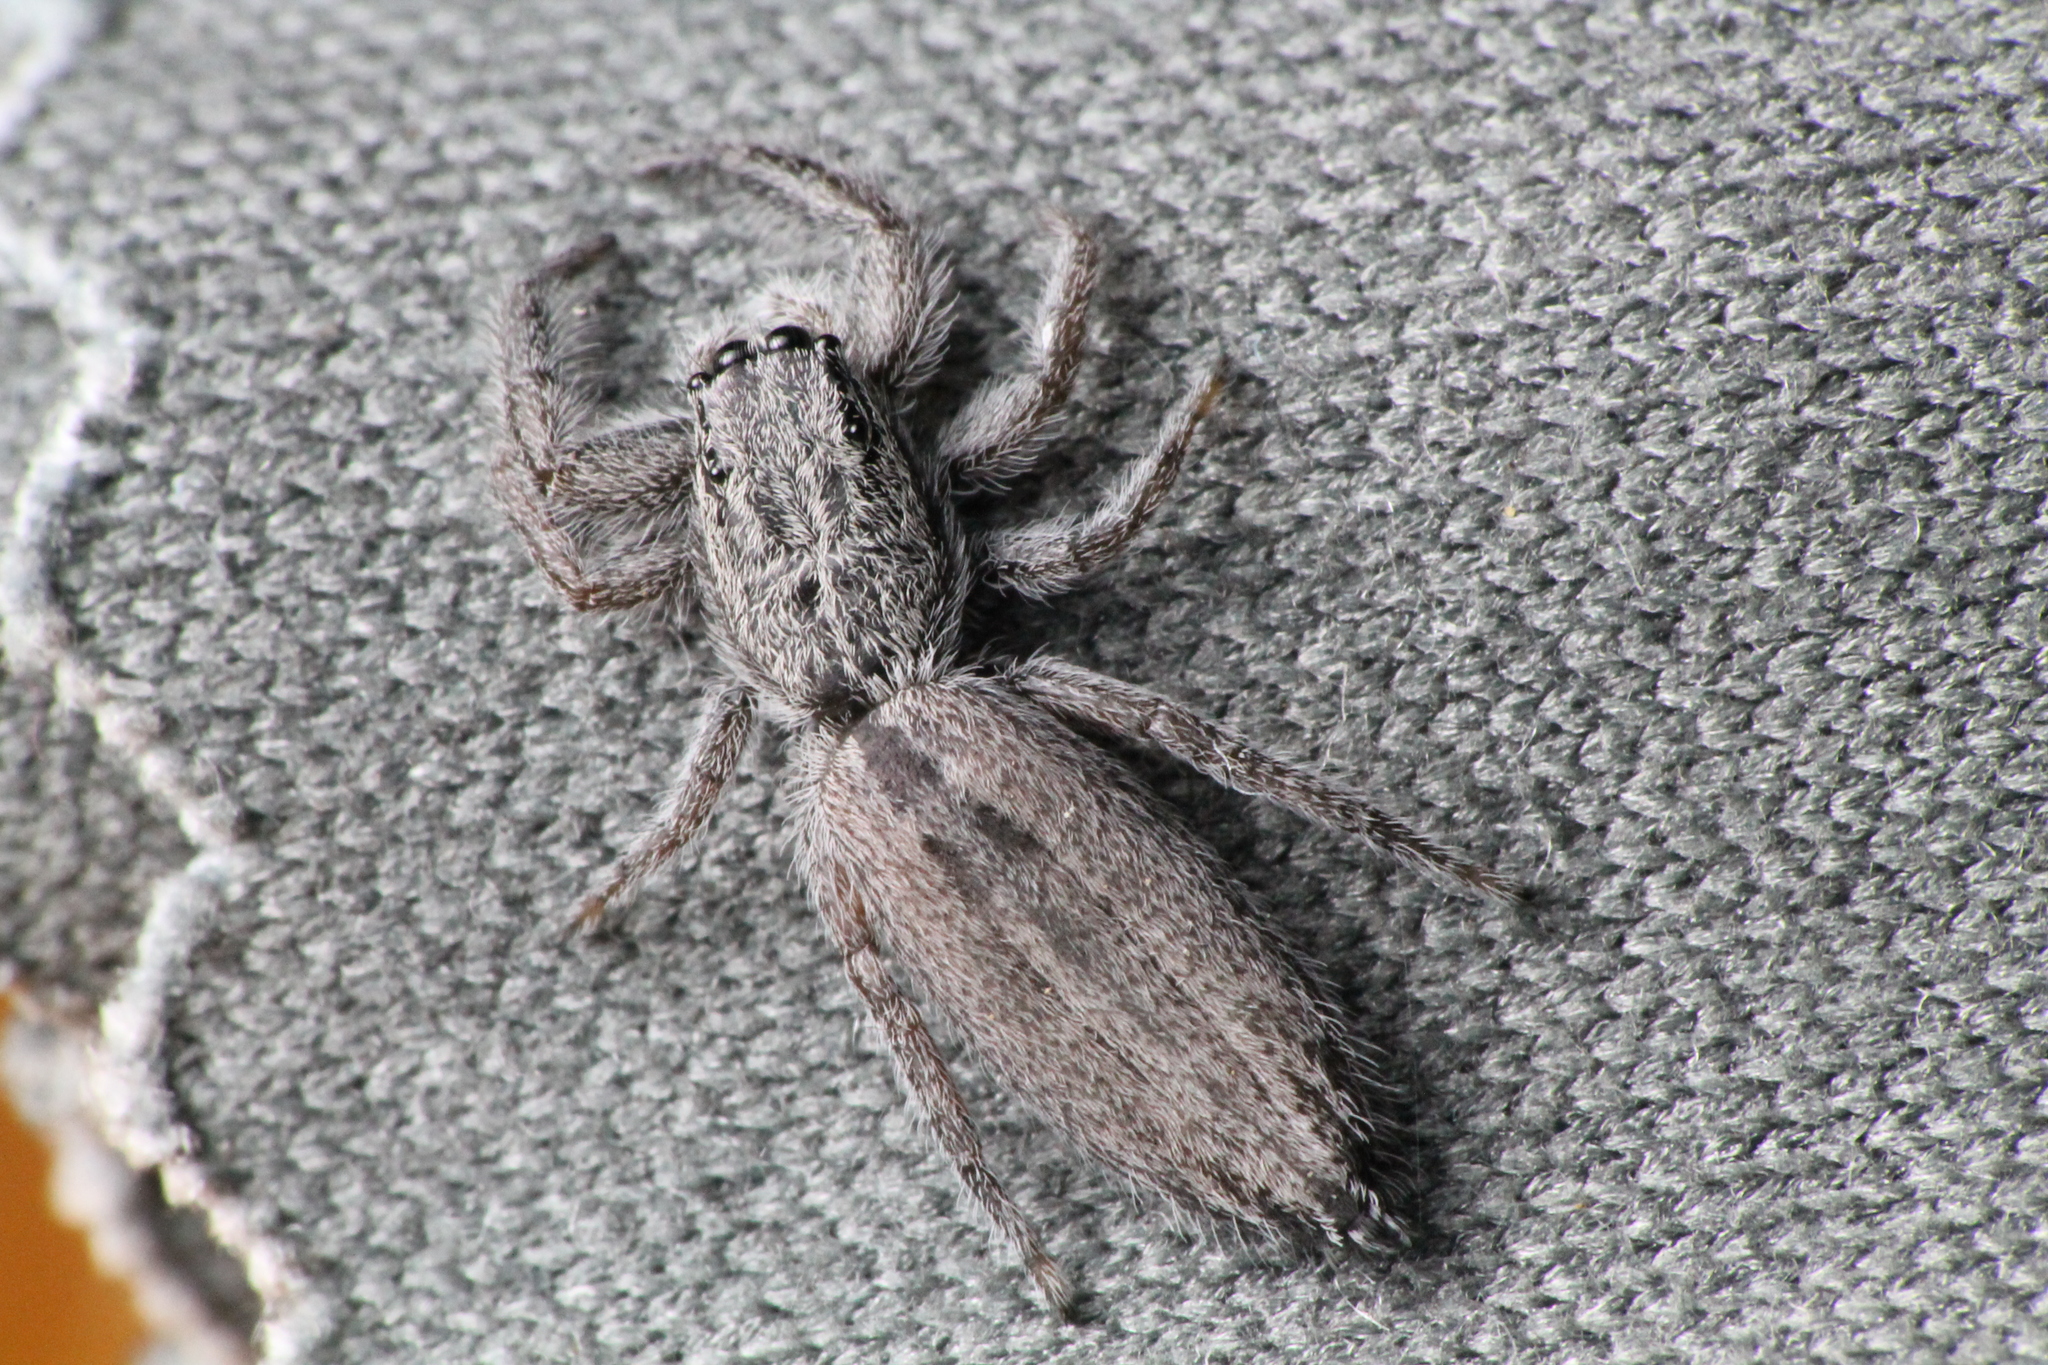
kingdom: Animalia
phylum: Arthropoda
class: Arachnida
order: Araneae
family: Salticidae
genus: Holoplatys
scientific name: Holoplatys apressus
